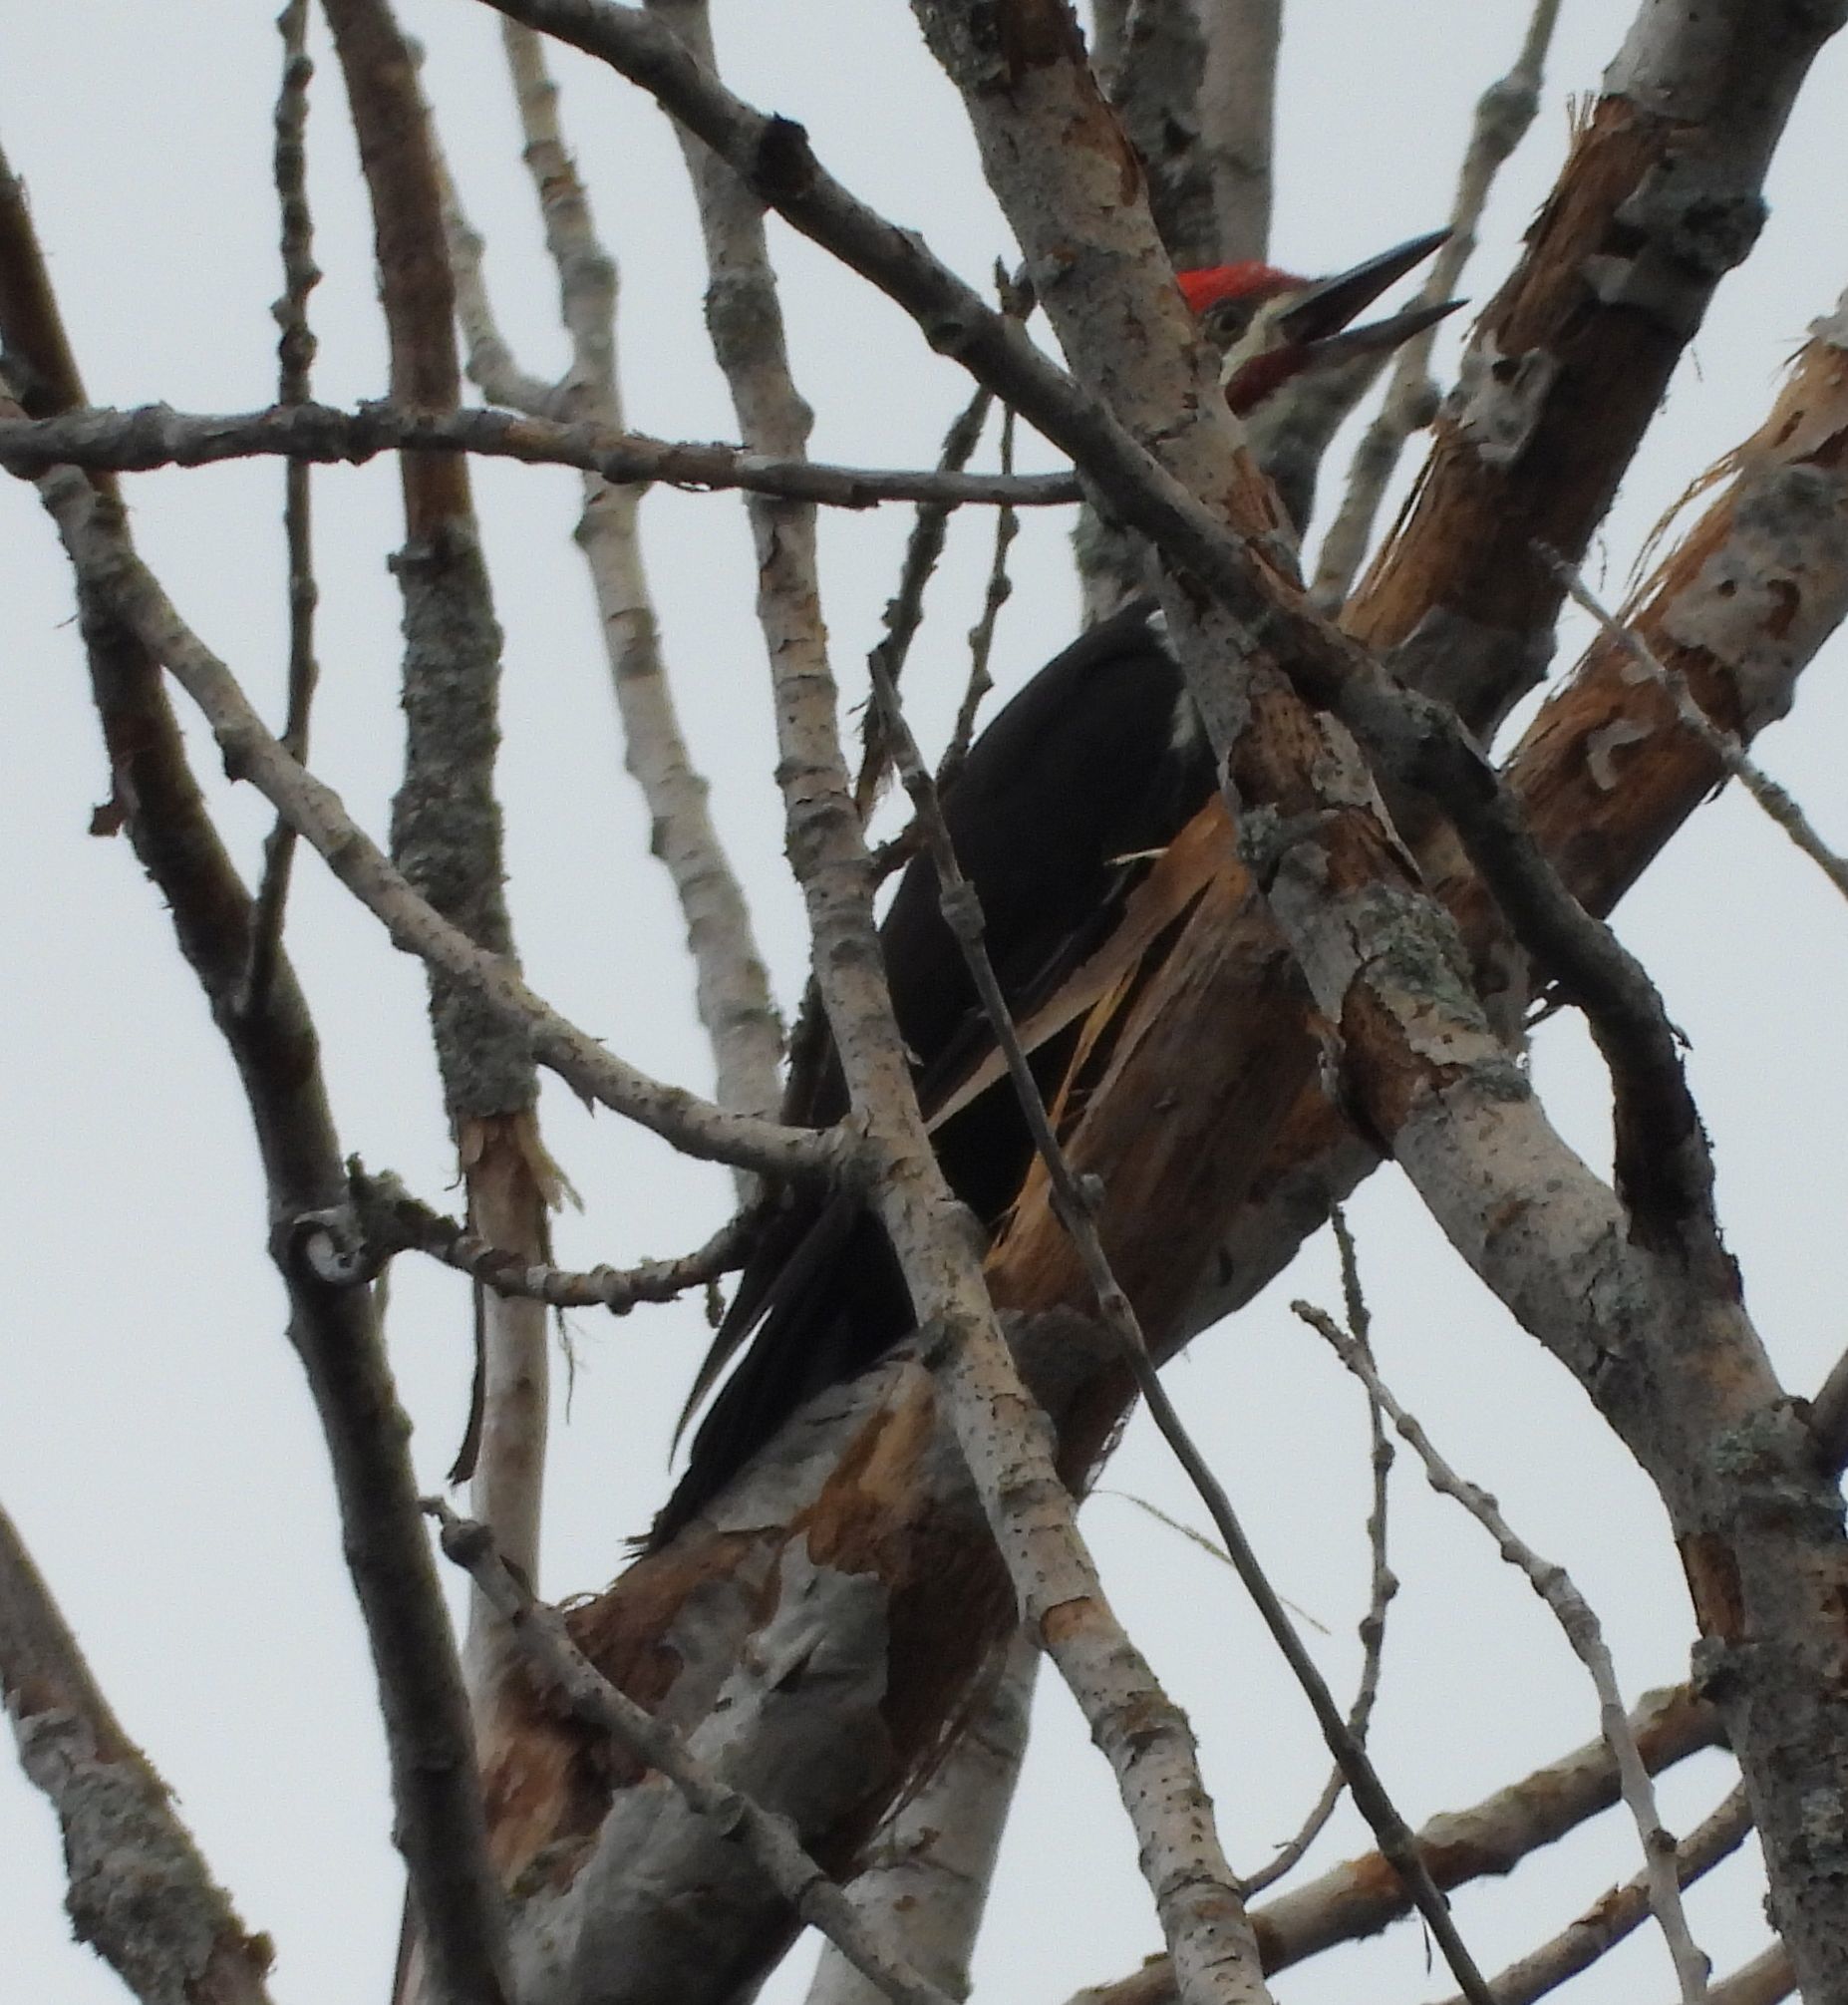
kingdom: Animalia
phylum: Chordata
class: Aves
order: Piciformes
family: Picidae
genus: Dryocopus
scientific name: Dryocopus pileatus
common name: Pileated woodpecker
